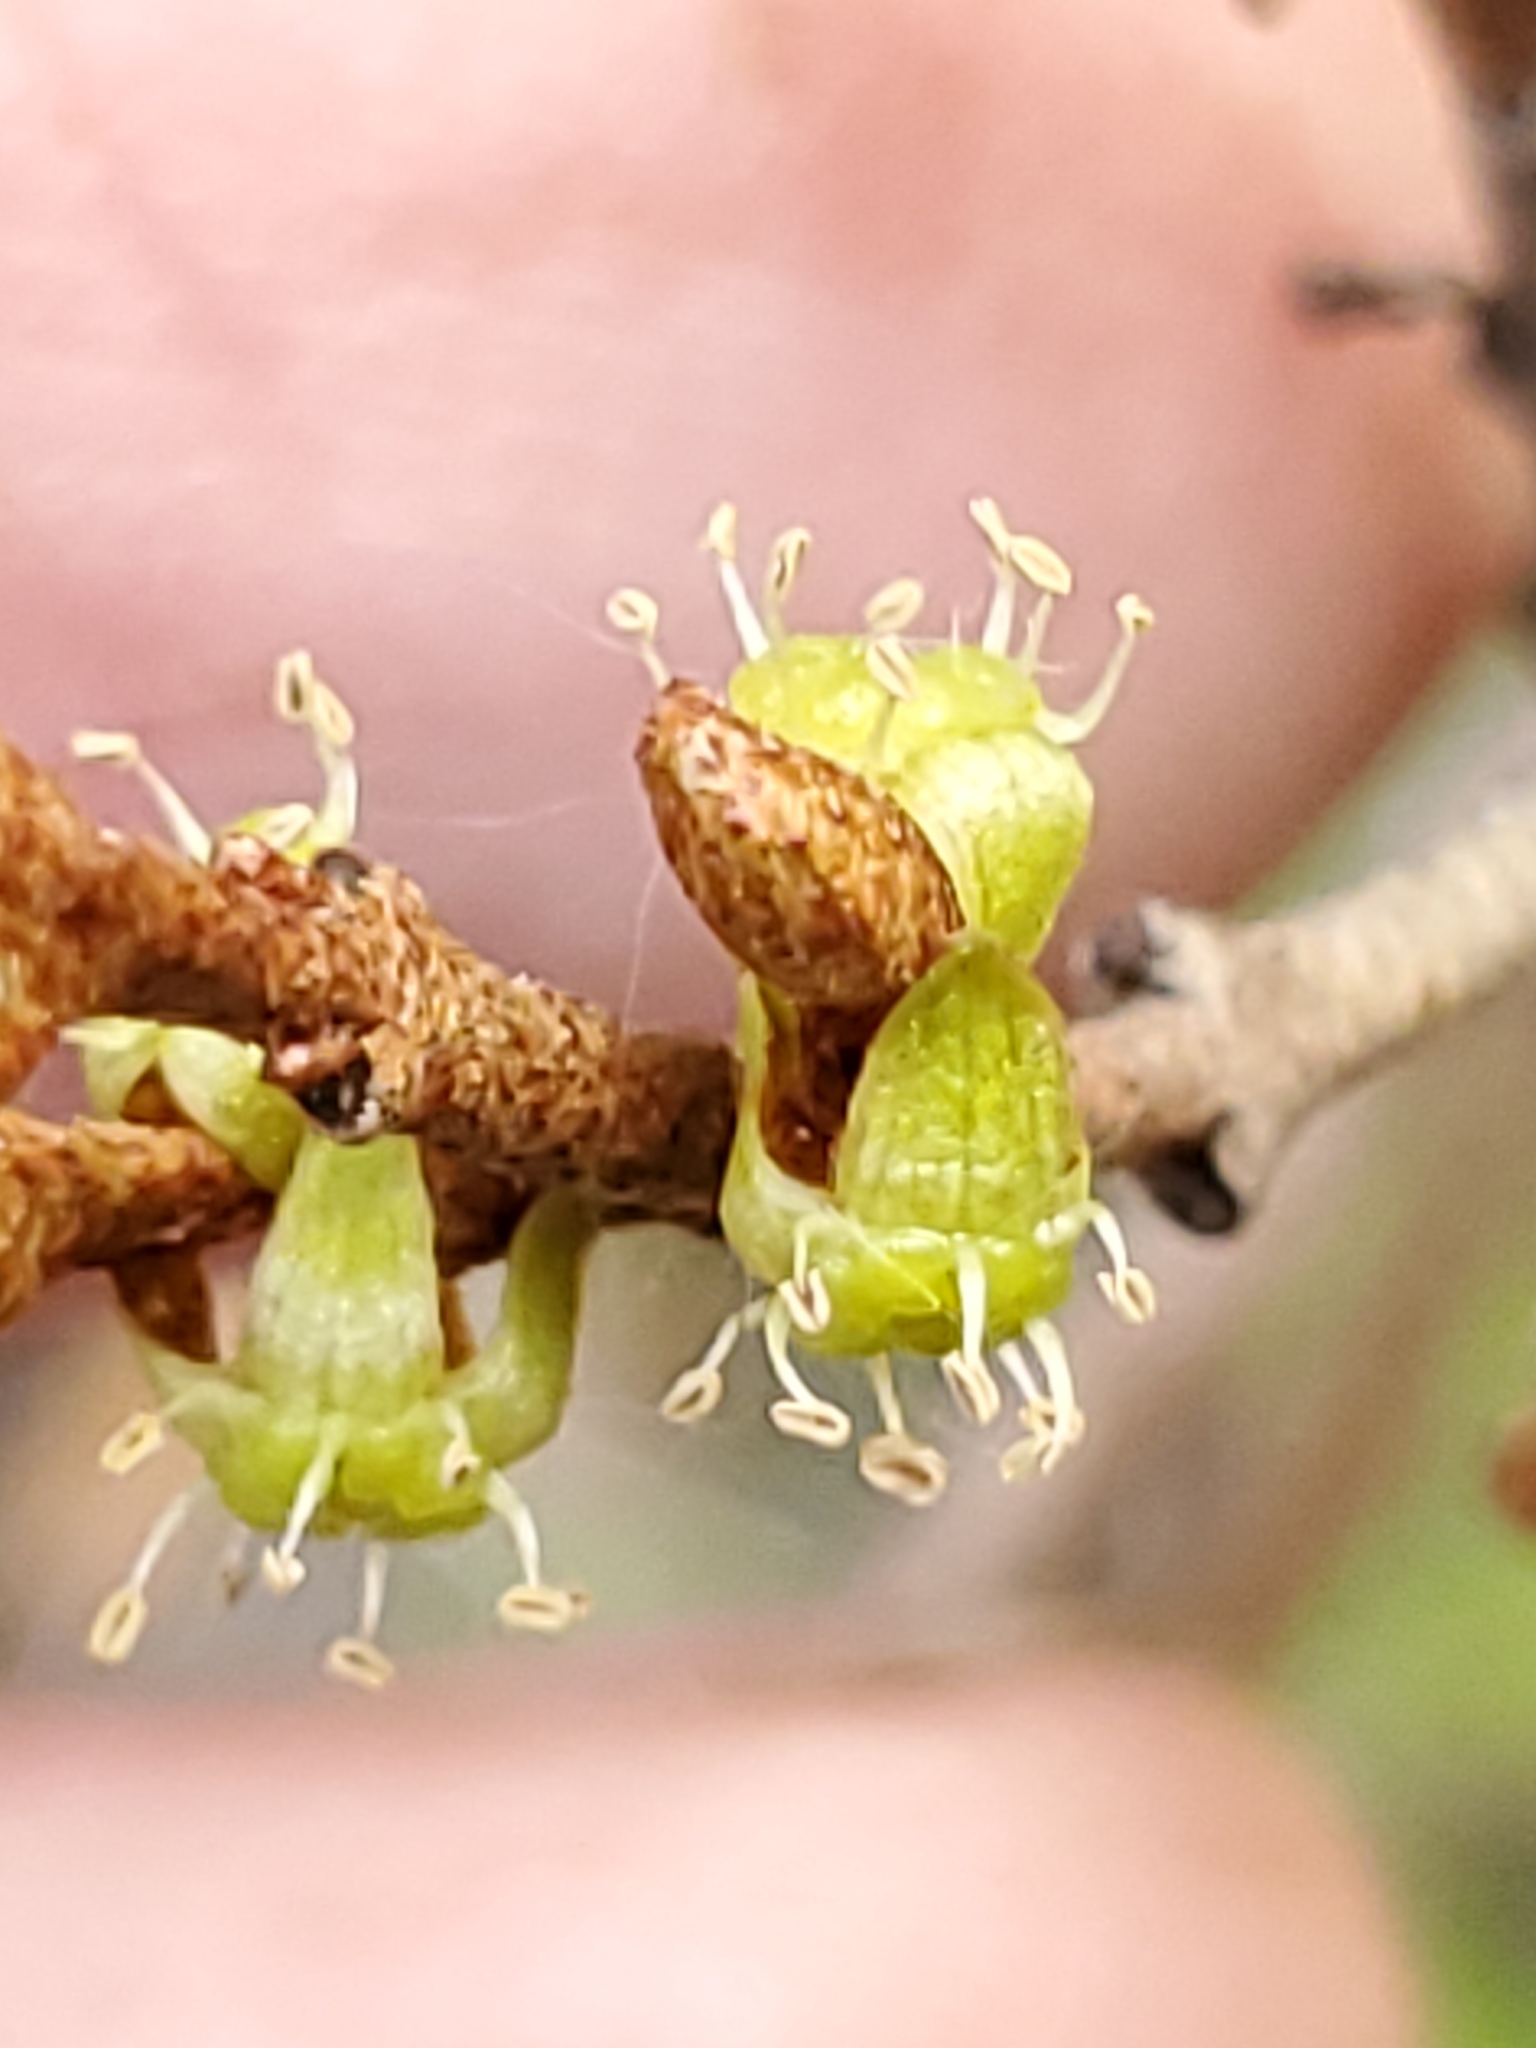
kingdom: Plantae
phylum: Tracheophyta
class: Magnoliopsida
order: Rosales
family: Elaeagnaceae
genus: Shepherdia
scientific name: Shepherdia canadensis
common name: Soapberry
